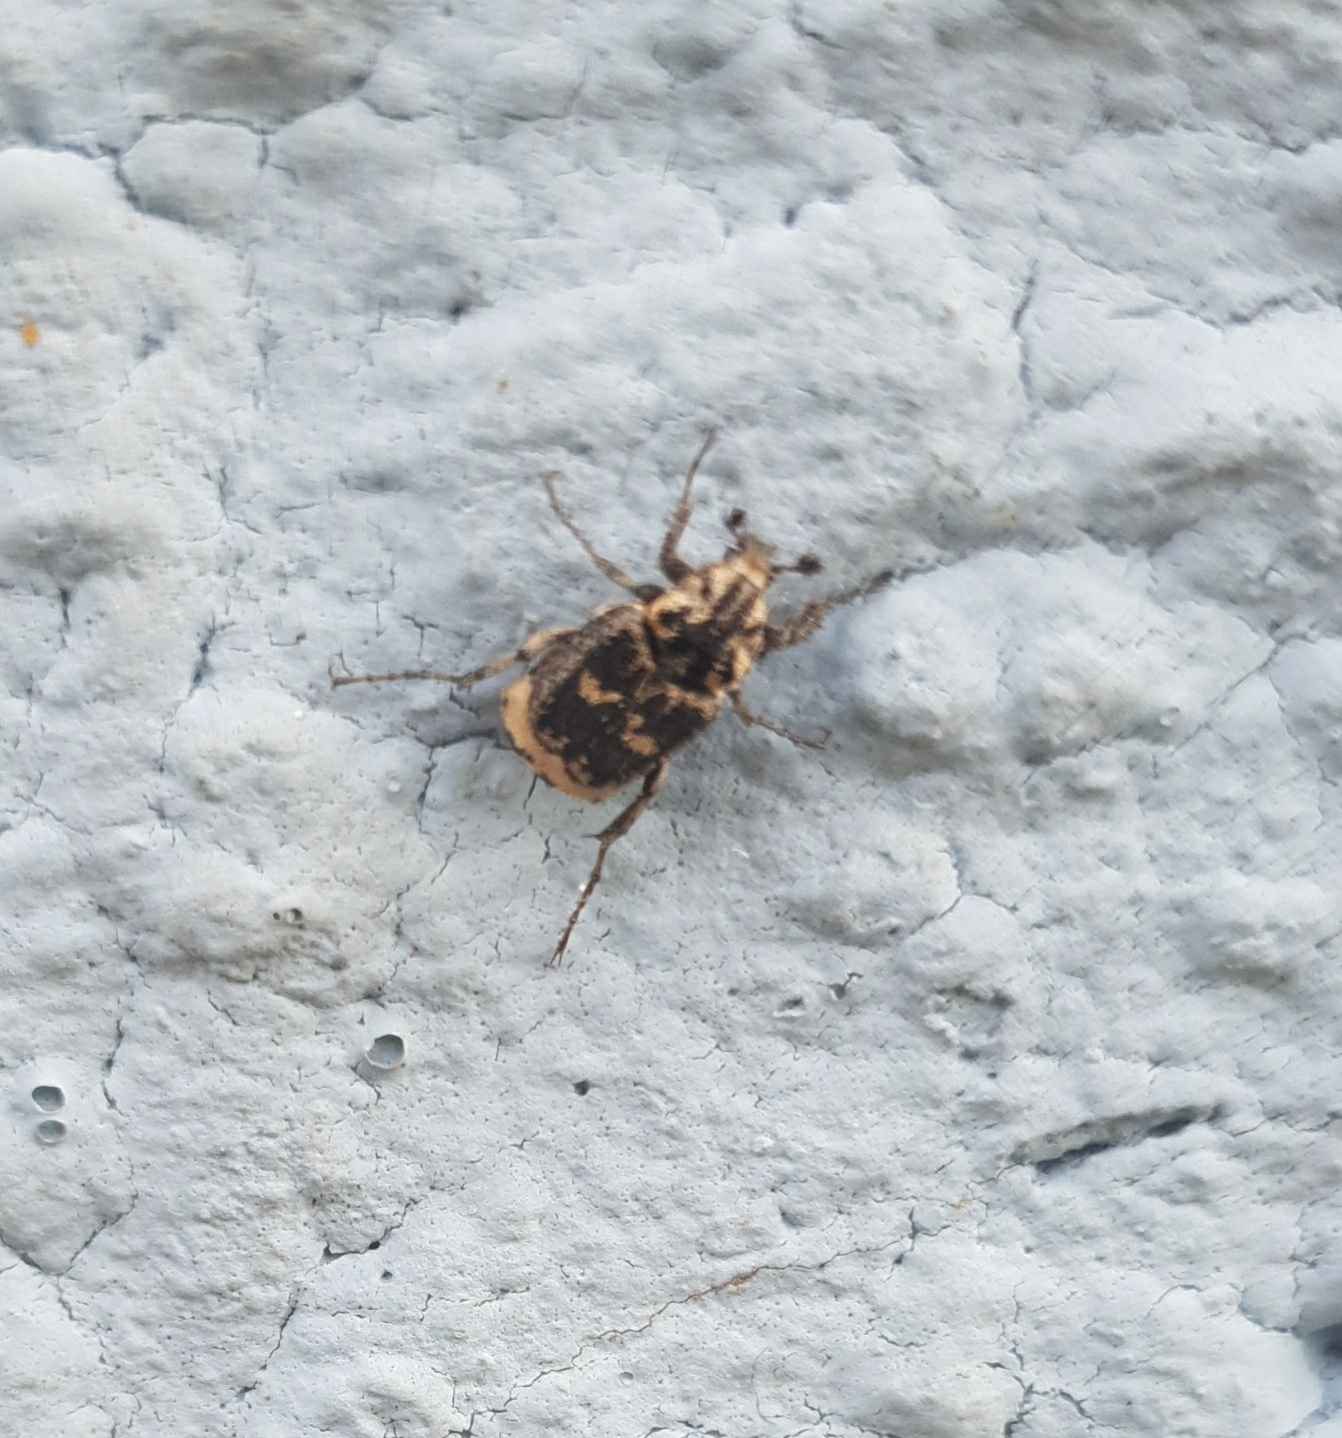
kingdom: Animalia
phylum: Arthropoda
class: Insecta
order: Coleoptera
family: Scarabaeidae
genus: Valgus
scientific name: Valgus hemipterus
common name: Bug flower chafer
